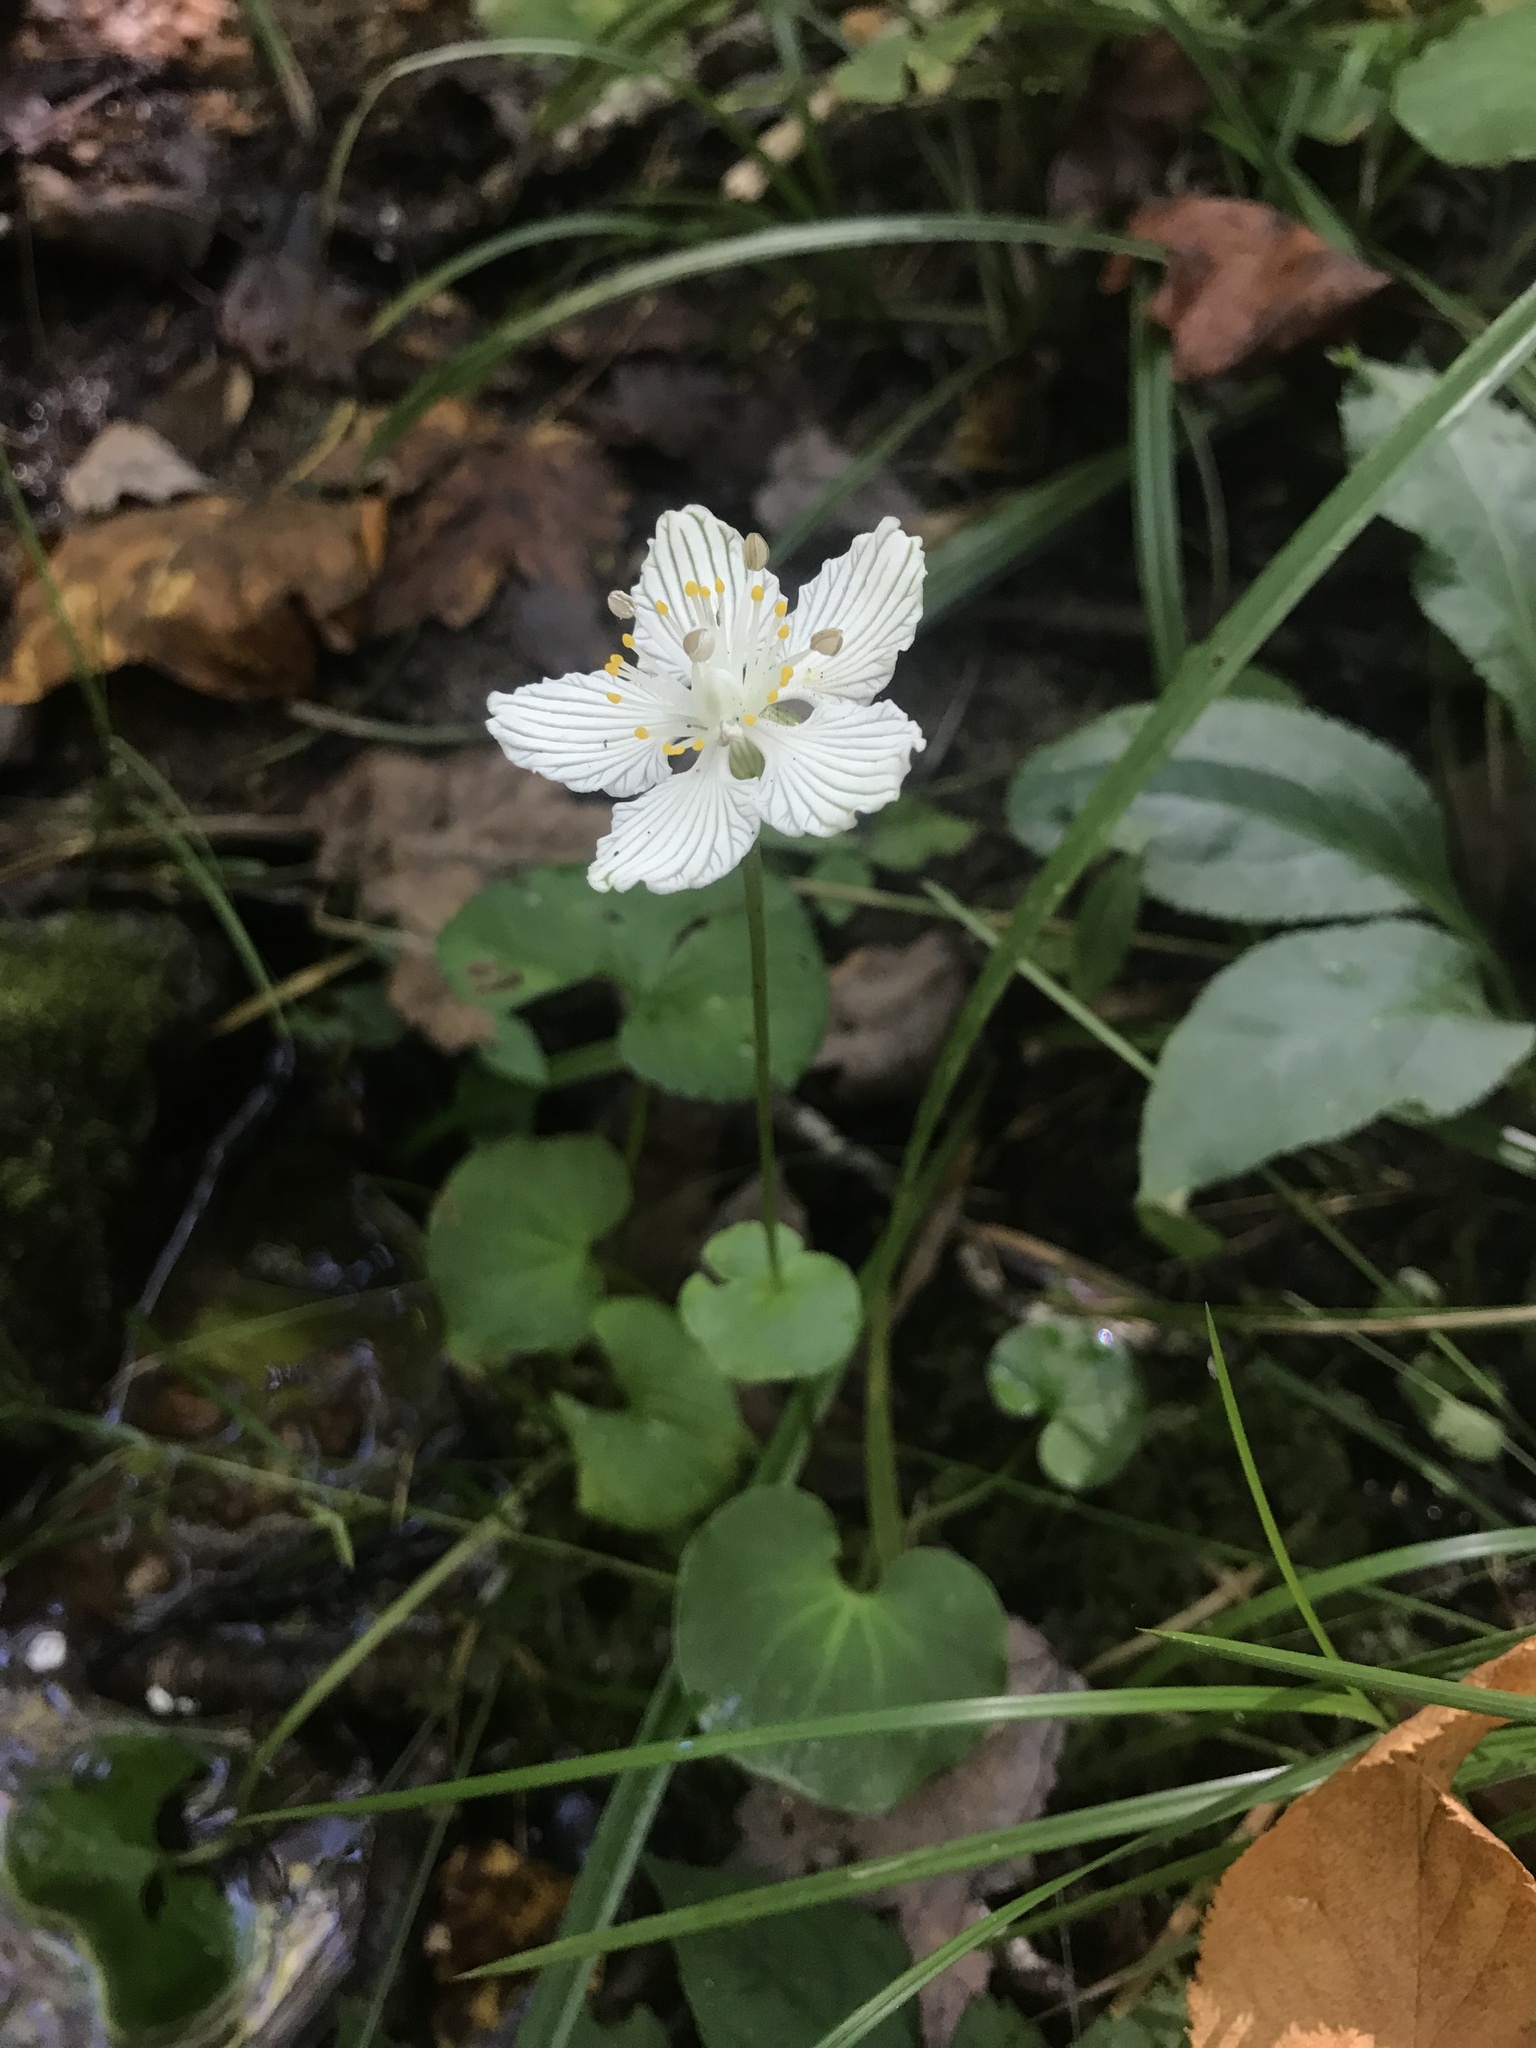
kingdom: Plantae
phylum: Tracheophyta
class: Magnoliopsida
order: Celastrales
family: Parnassiaceae
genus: Parnassia
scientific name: Parnassia asarifolia
